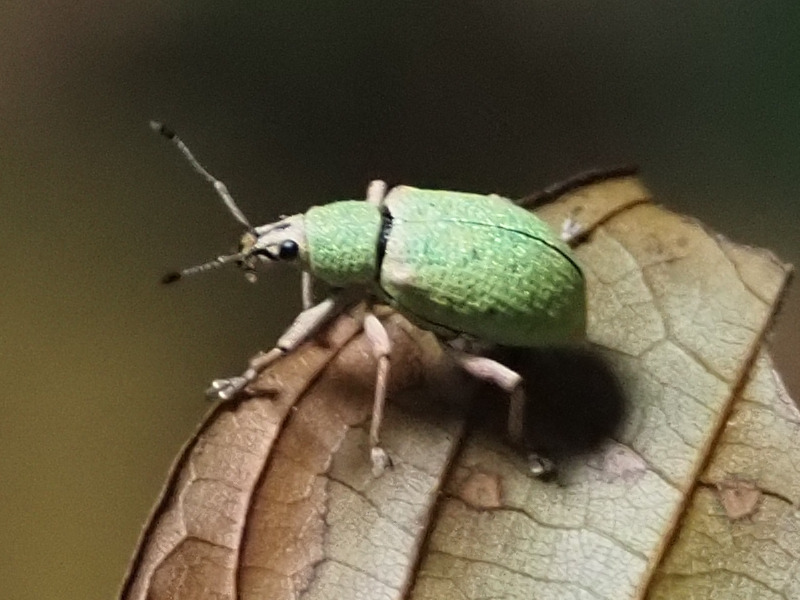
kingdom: Animalia
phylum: Arthropoda
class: Insecta
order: Coleoptera
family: Curculionidae
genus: Exophthalmus
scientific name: Exophthalmus carneipes
